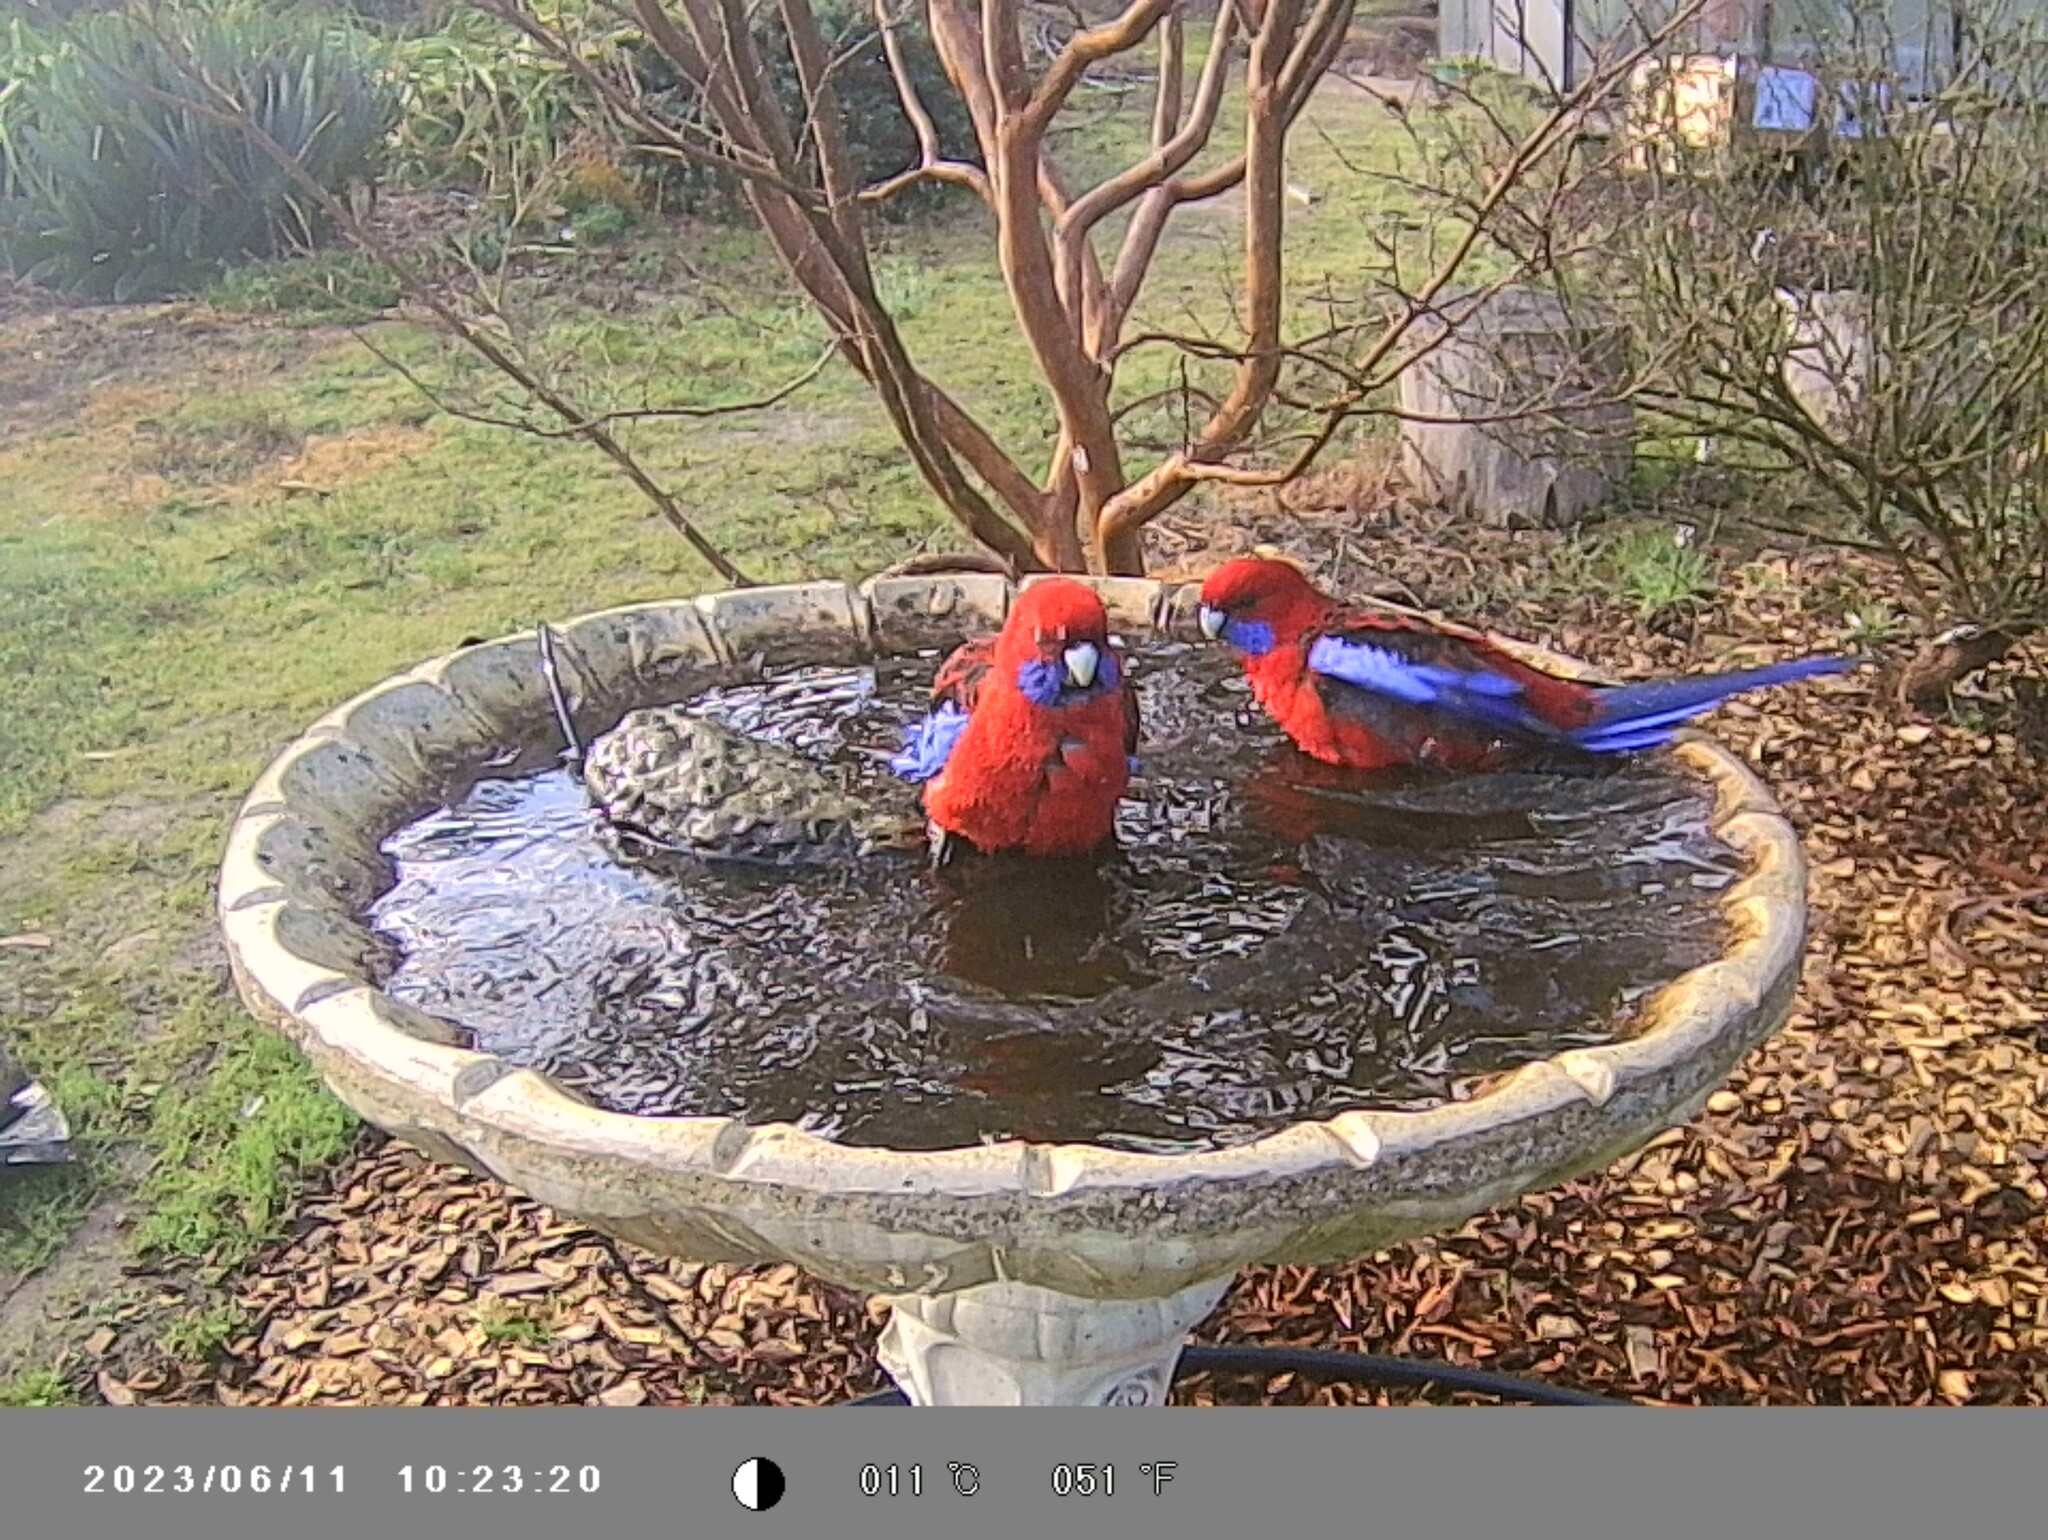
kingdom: Animalia
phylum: Chordata
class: Aves
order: Psittaciformes
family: Psittacidae
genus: Platycercus
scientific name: Platycercus elegans
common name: Crimson rosella
